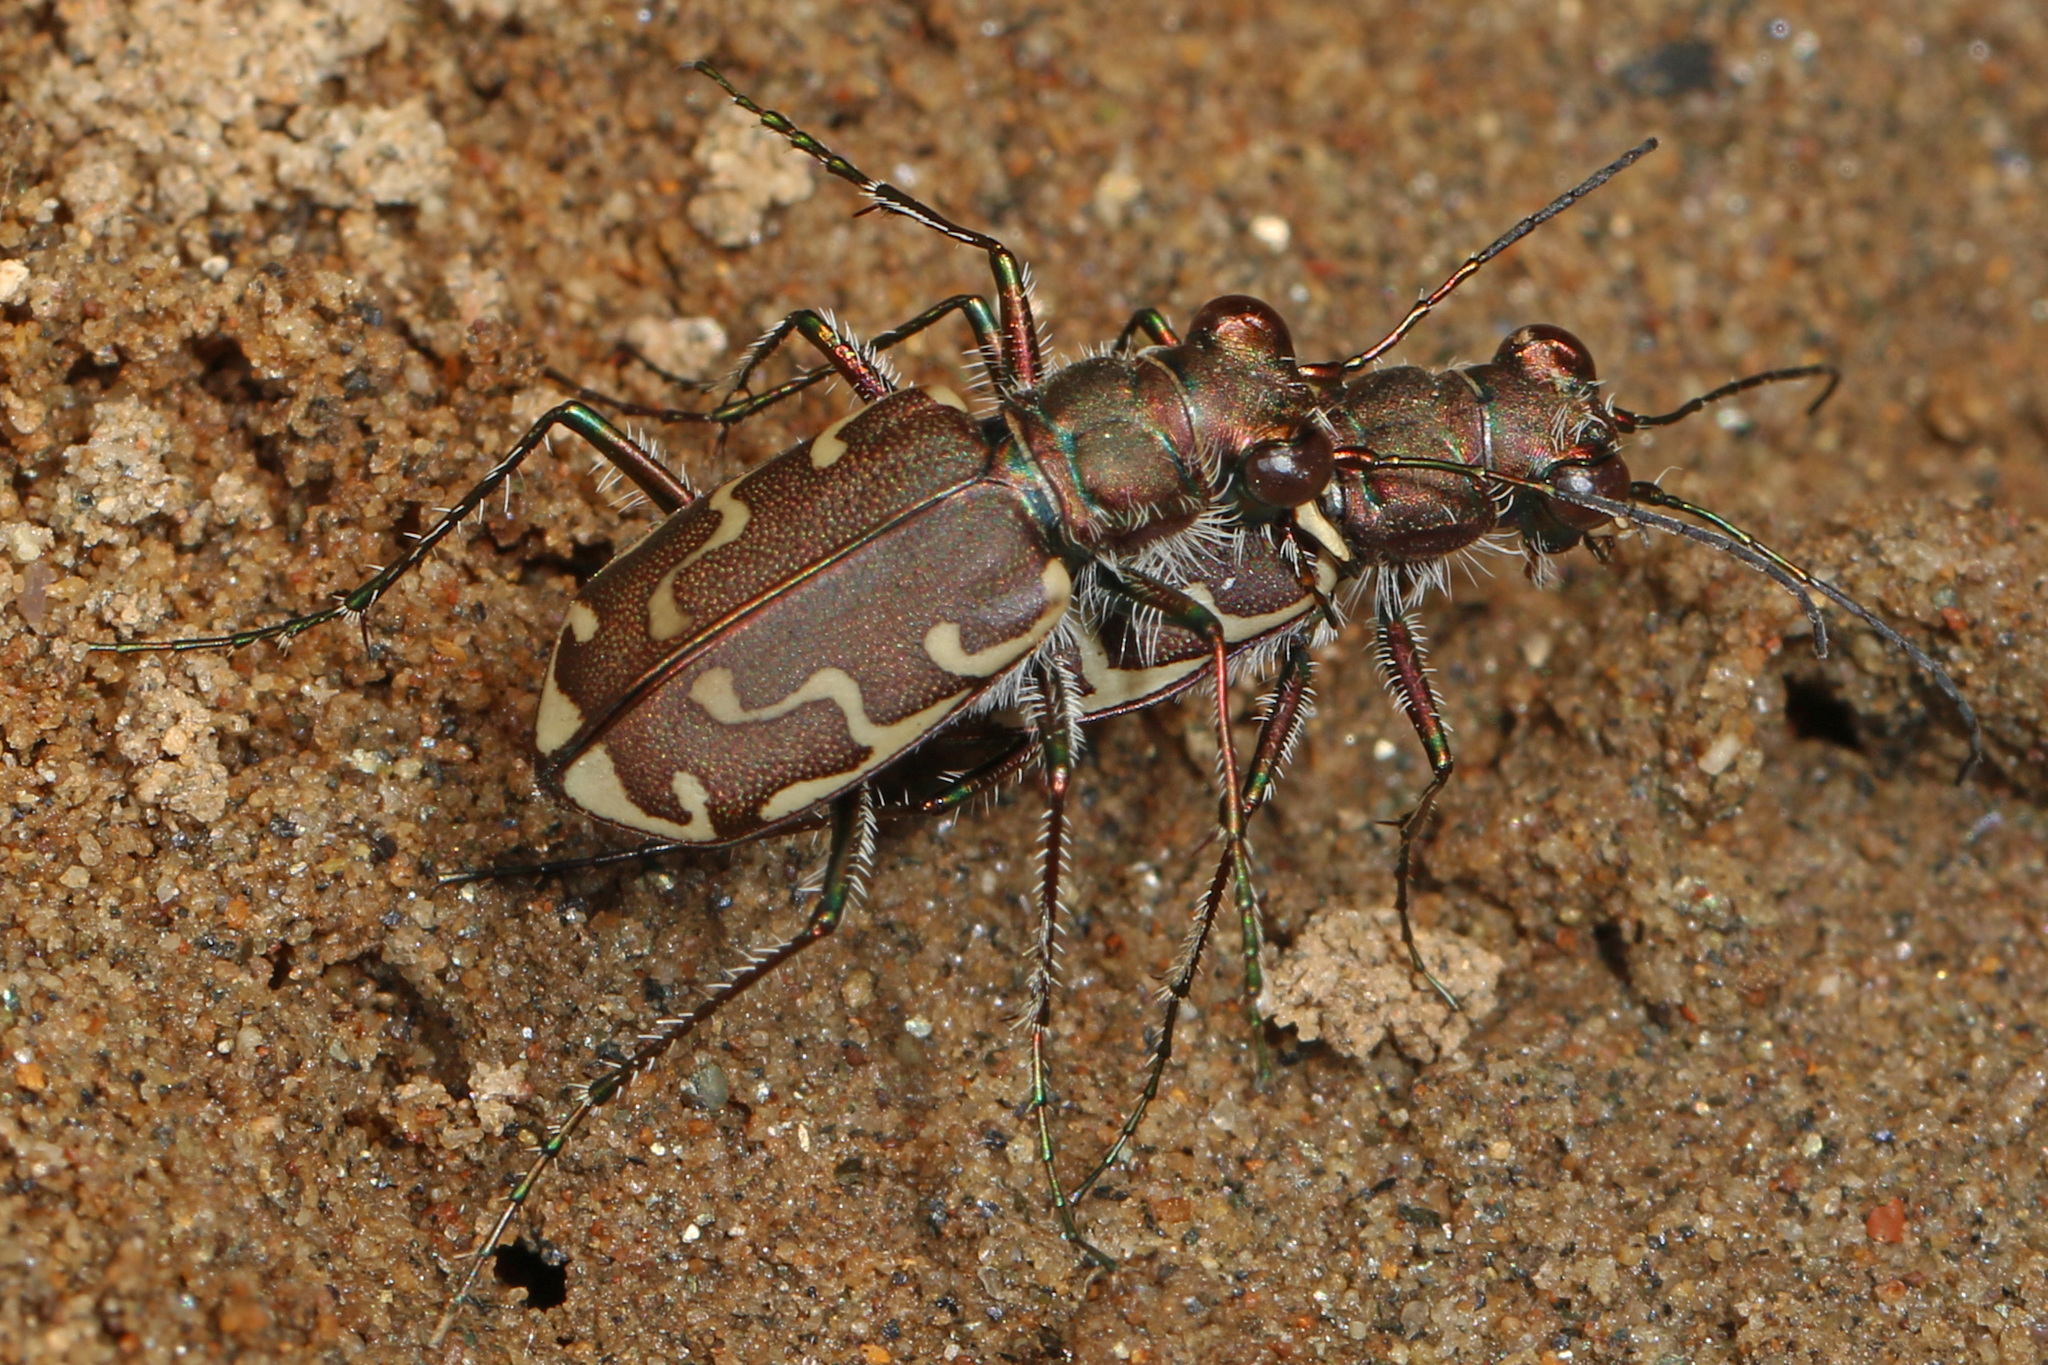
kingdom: Animalia
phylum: Arthropoda
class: Insecta
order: Coleoptera
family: Carabidae
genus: Cicindela
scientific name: Cicindela repanda
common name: Bronzed tiger beetle
